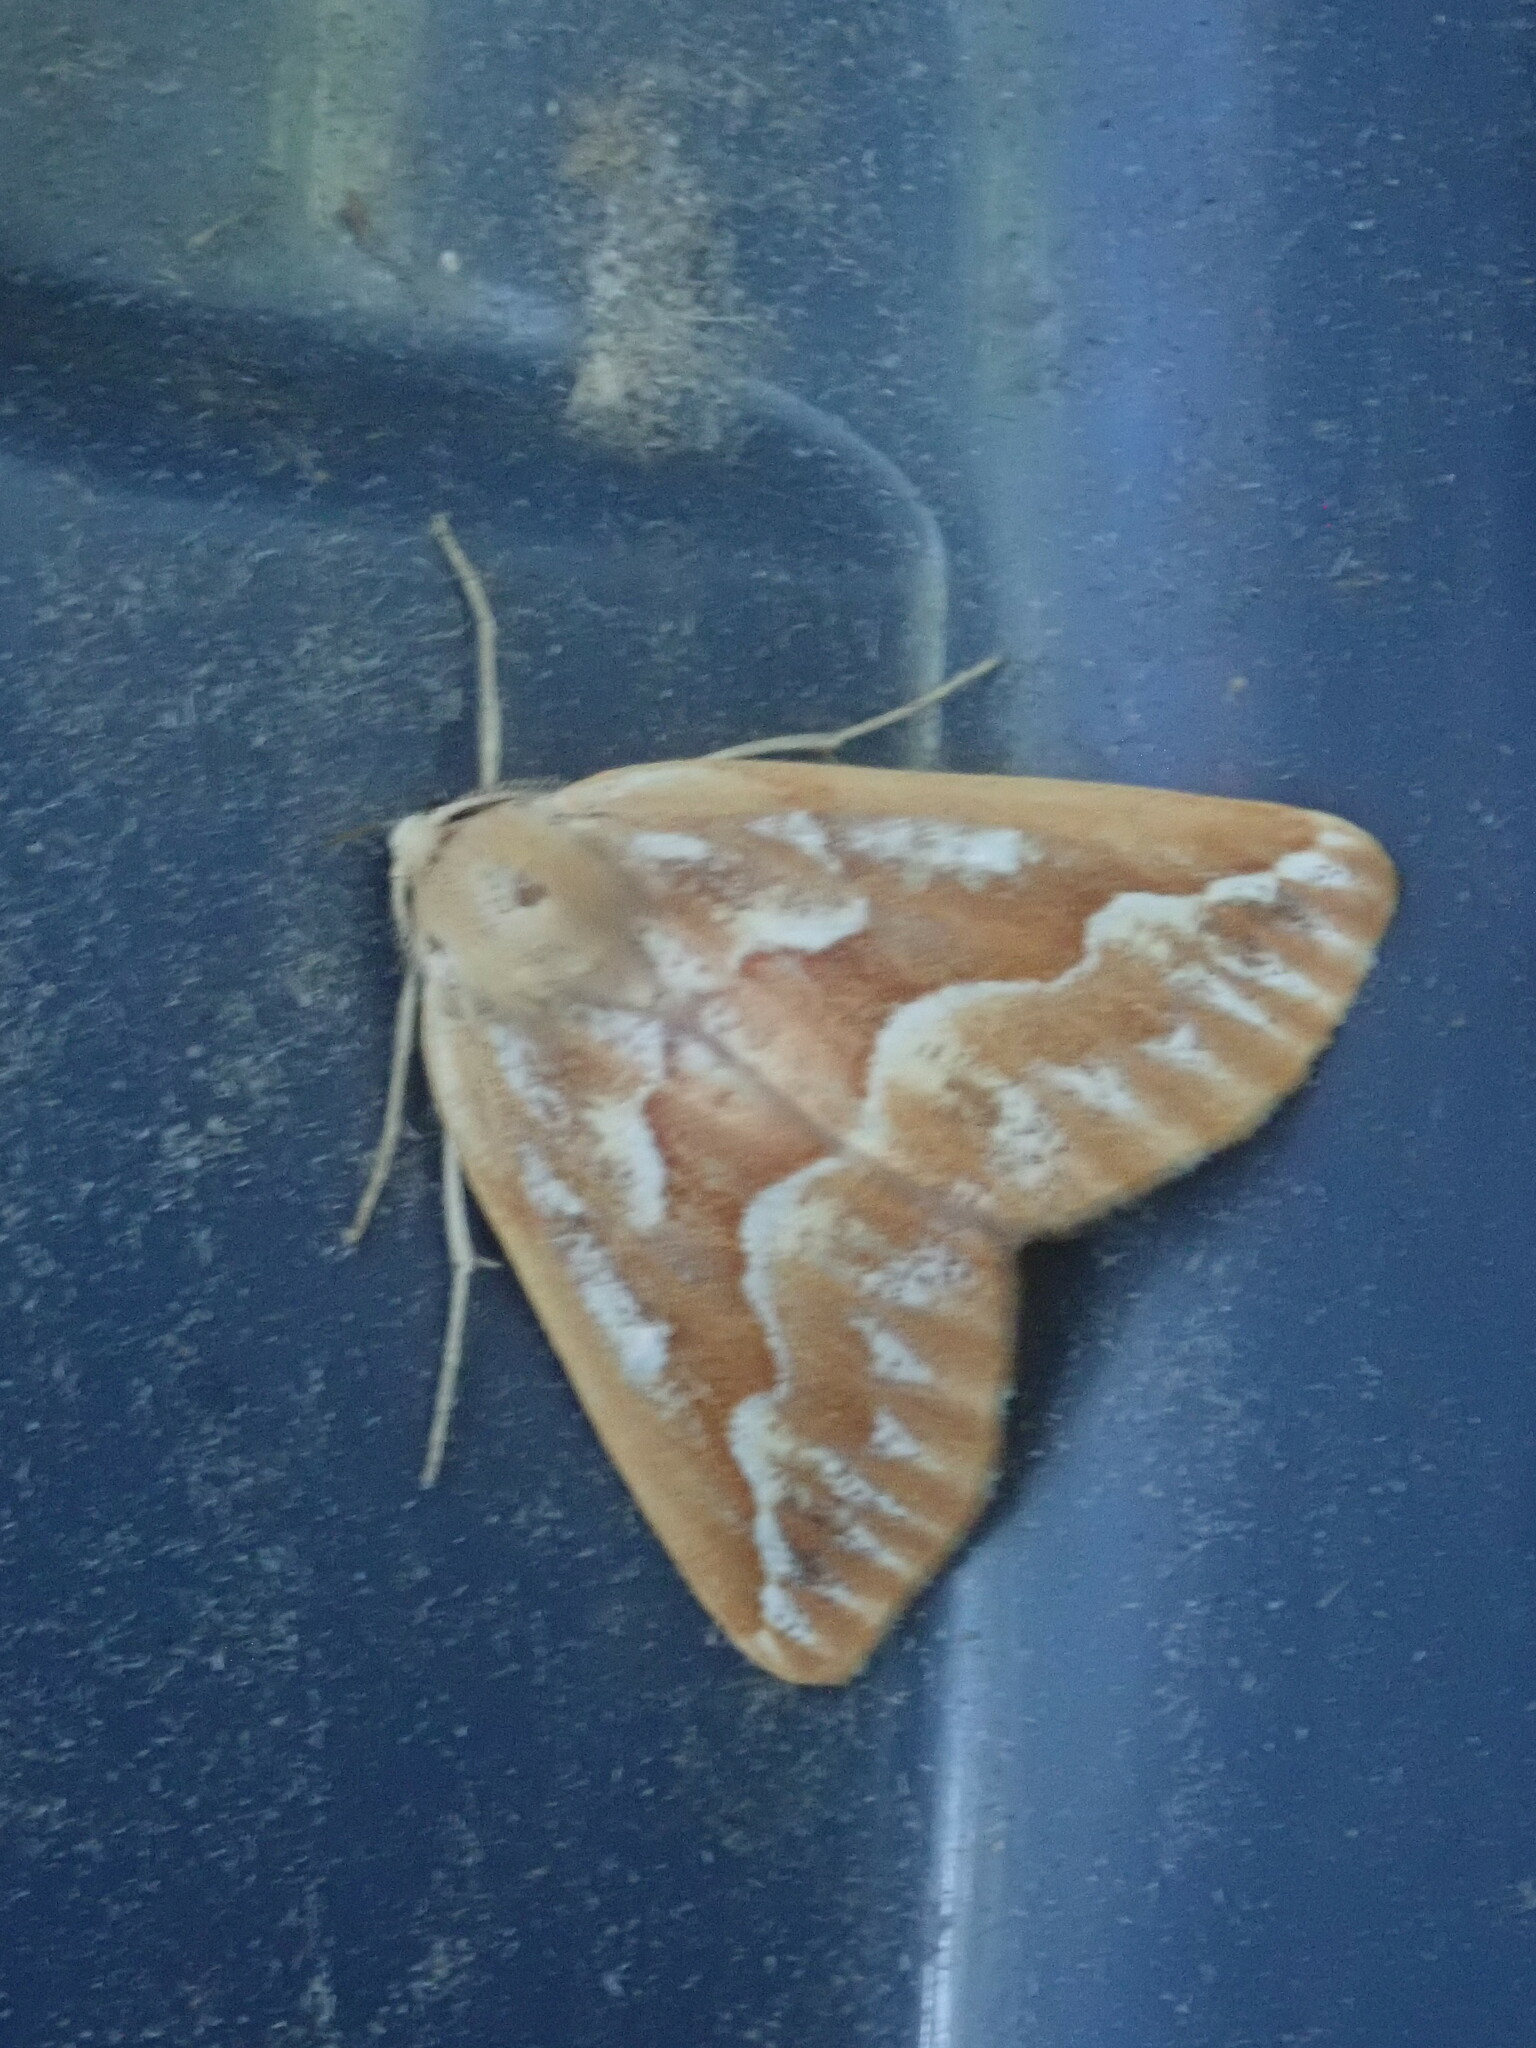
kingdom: Animalia
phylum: Arthropoda
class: Insecta
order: Lepidoptera
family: Geometridae
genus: Caripeta
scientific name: Caripeta piniata
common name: Northern pine looper moth
